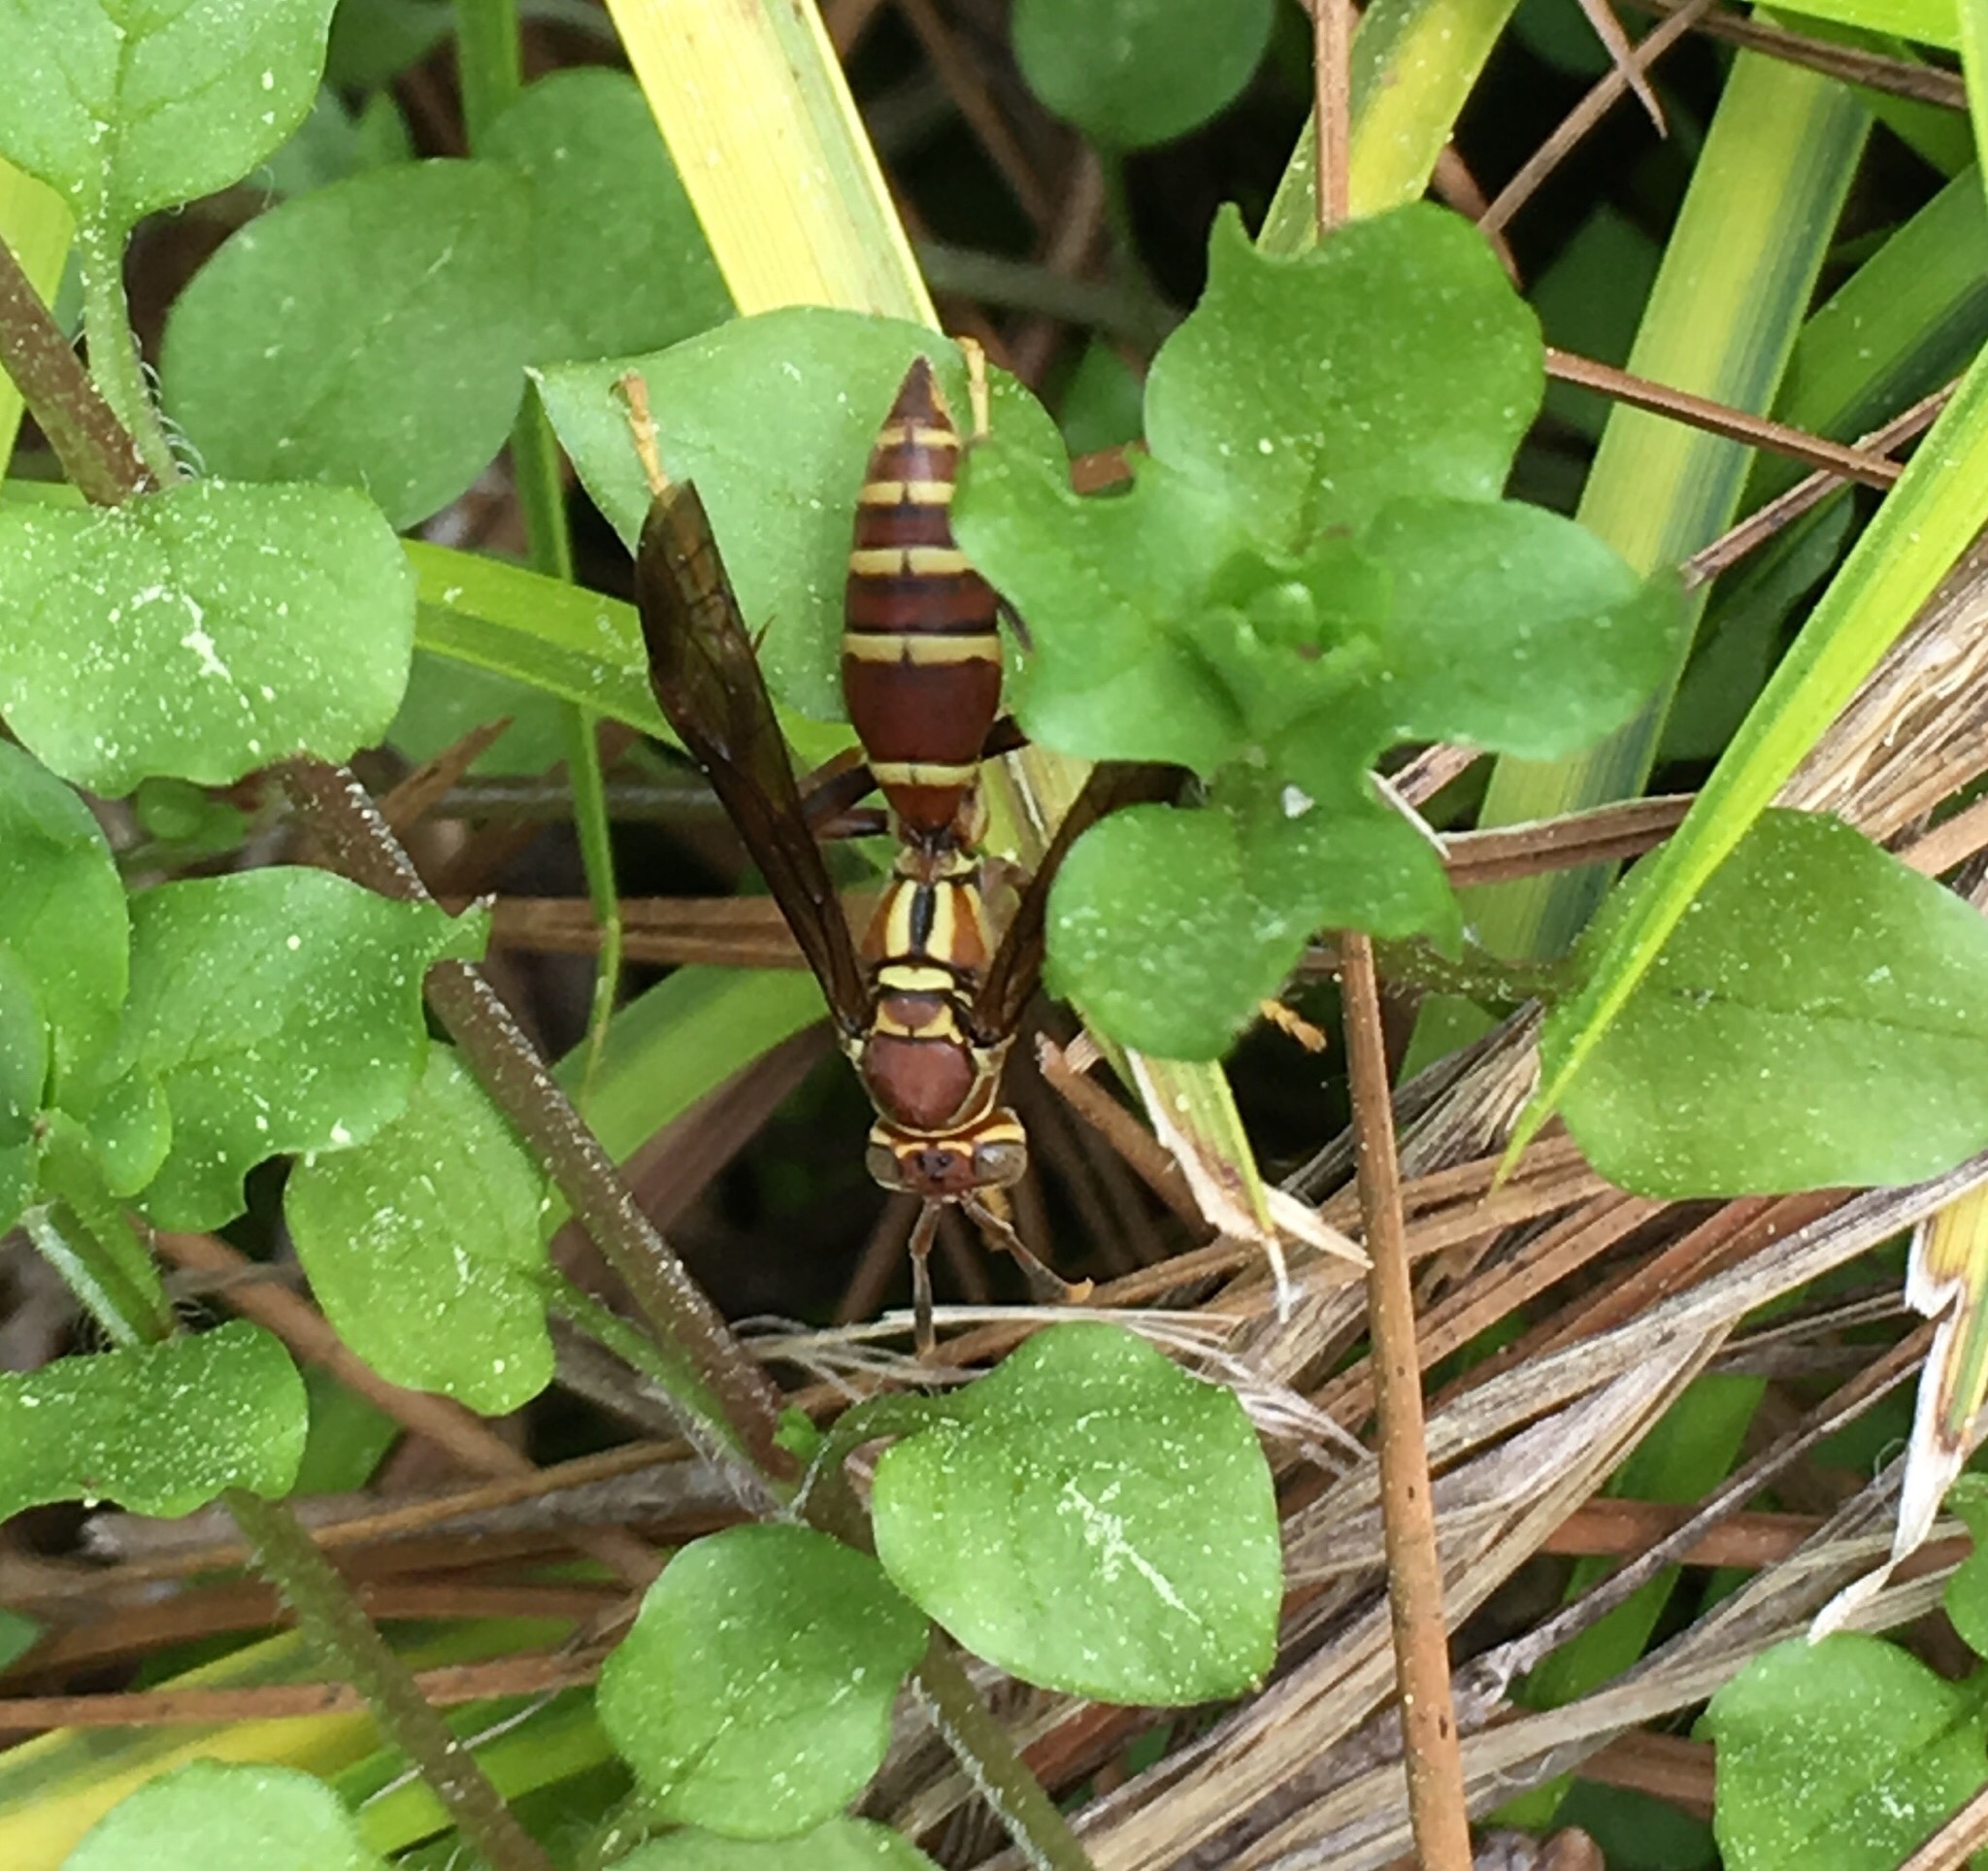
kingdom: Animalia
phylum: Arthropoda
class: Insecta
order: Hymenoptera
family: Eumenidae
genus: Polistes
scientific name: Polistes exclamans
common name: Paper wasp
